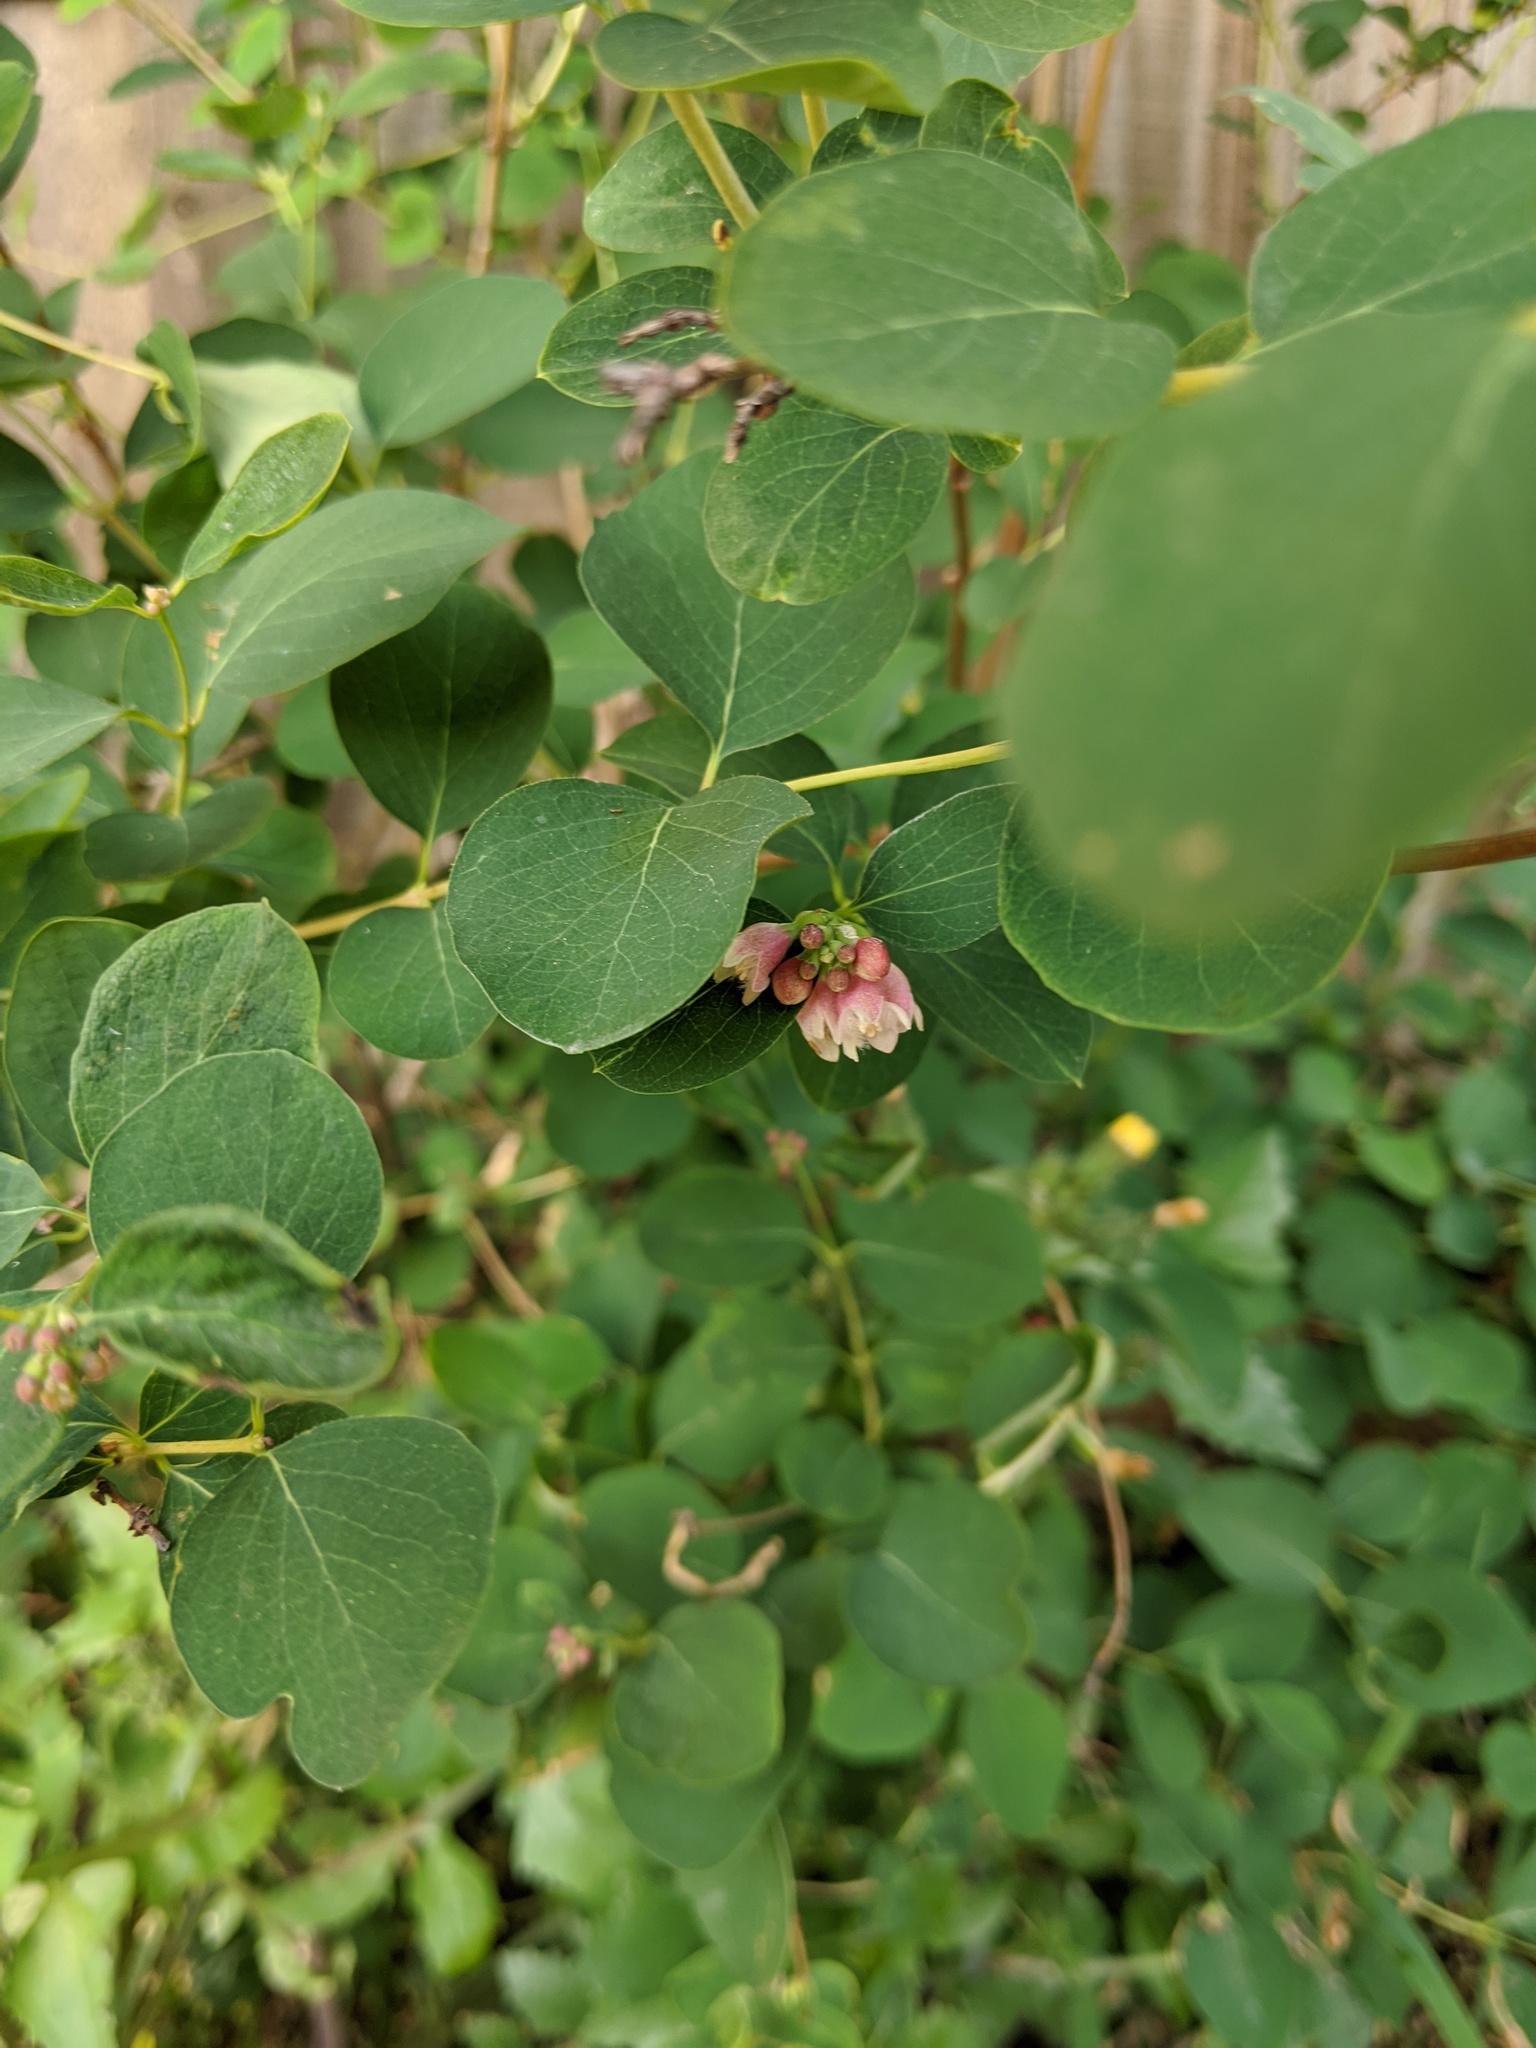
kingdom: Plantae
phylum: Tracheophyta
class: Magnoliopsida
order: Dipsacales
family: Caprifoliaceae
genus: Symphoricarpos
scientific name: Symphoricarpos albus
